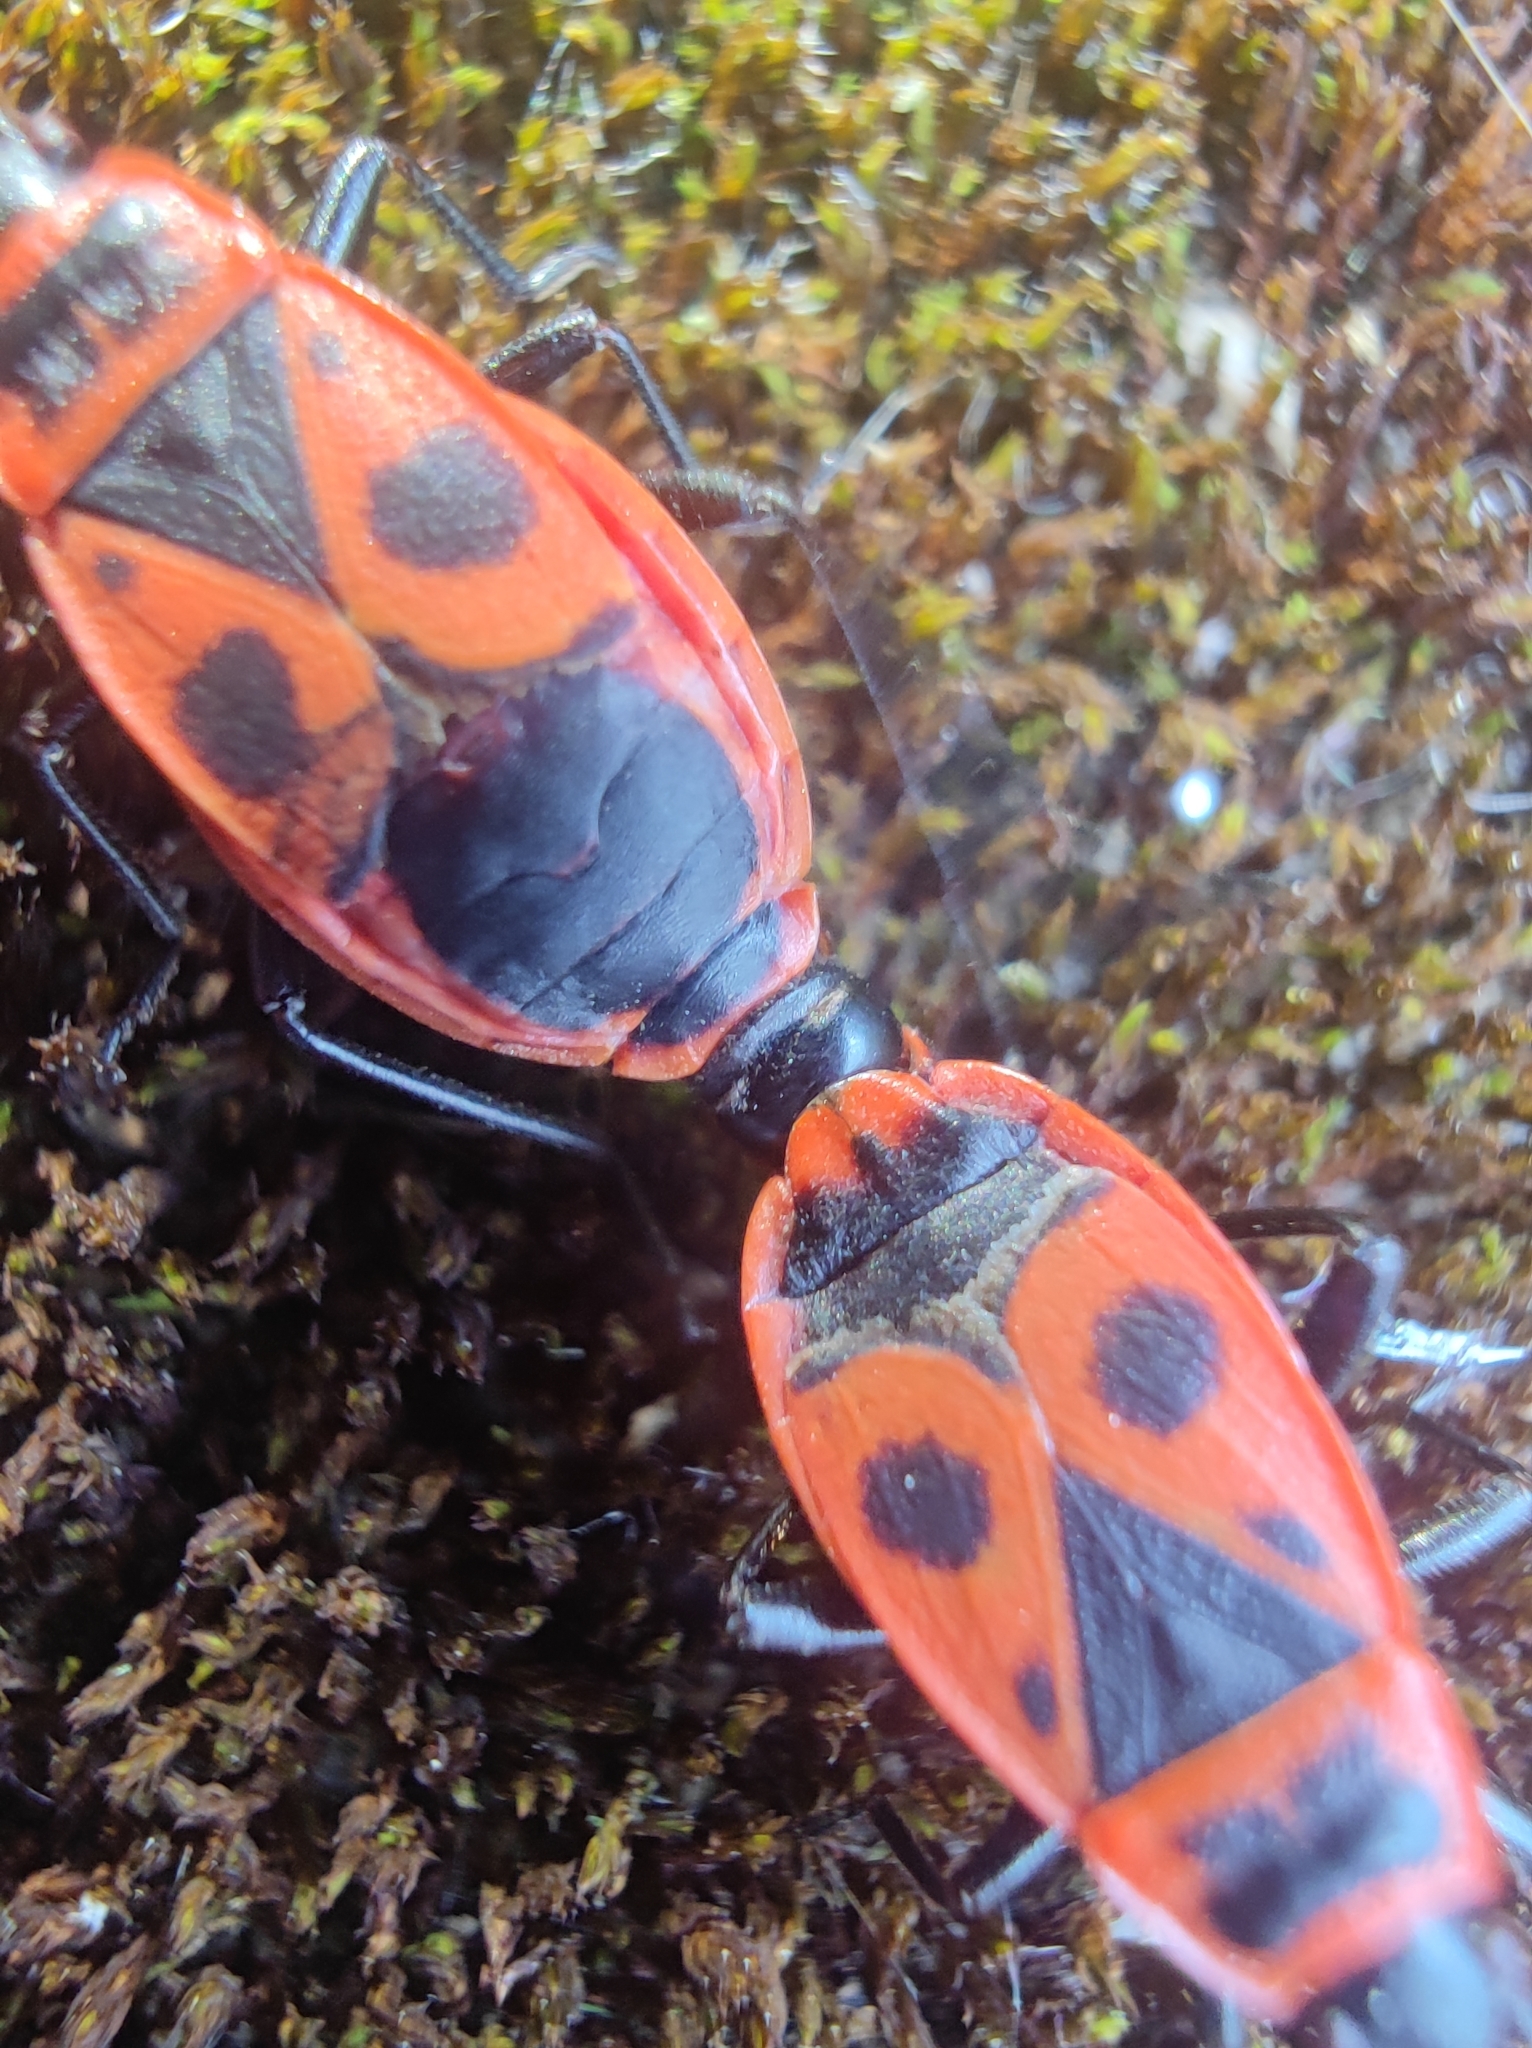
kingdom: Animalia
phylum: Arthropoda
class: Insecta
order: Hemiptera
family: Pyrrhocoridae
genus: Pyrrhocoris
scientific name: Pyrrhocoris apterus
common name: Firebug
